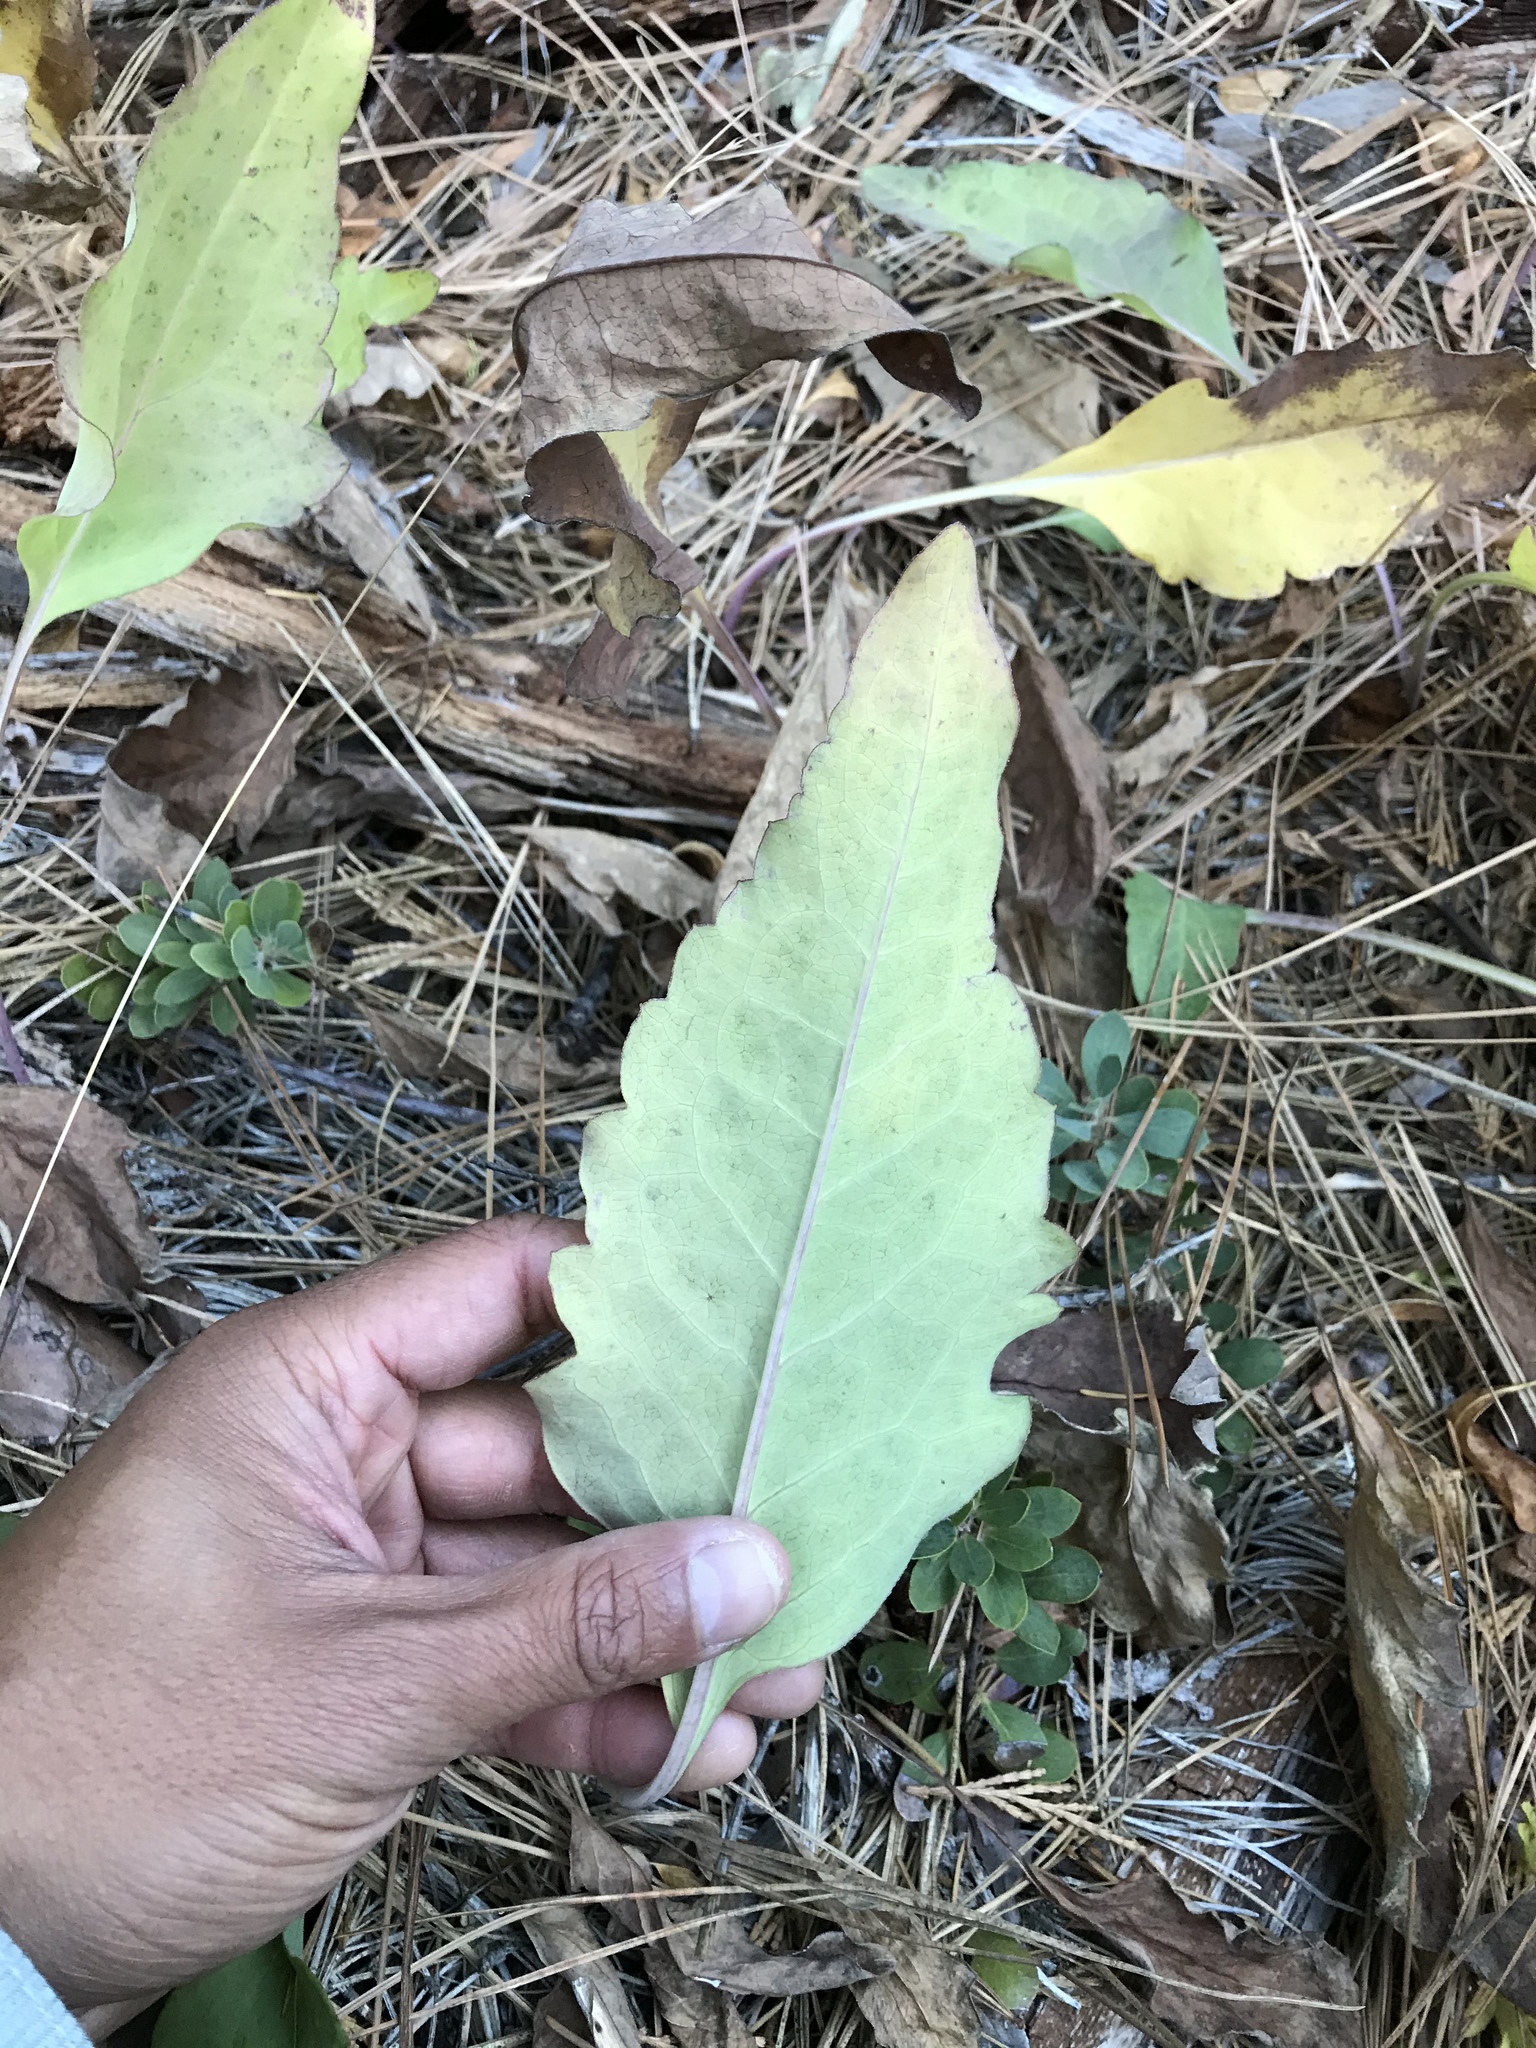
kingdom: Plantae
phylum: Tracheophyta
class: Magnoliopsida
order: Asterales
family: Asteraceae
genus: Rudbeckia
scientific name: Rudbeckia klamathensis
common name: Klamath coneflower
